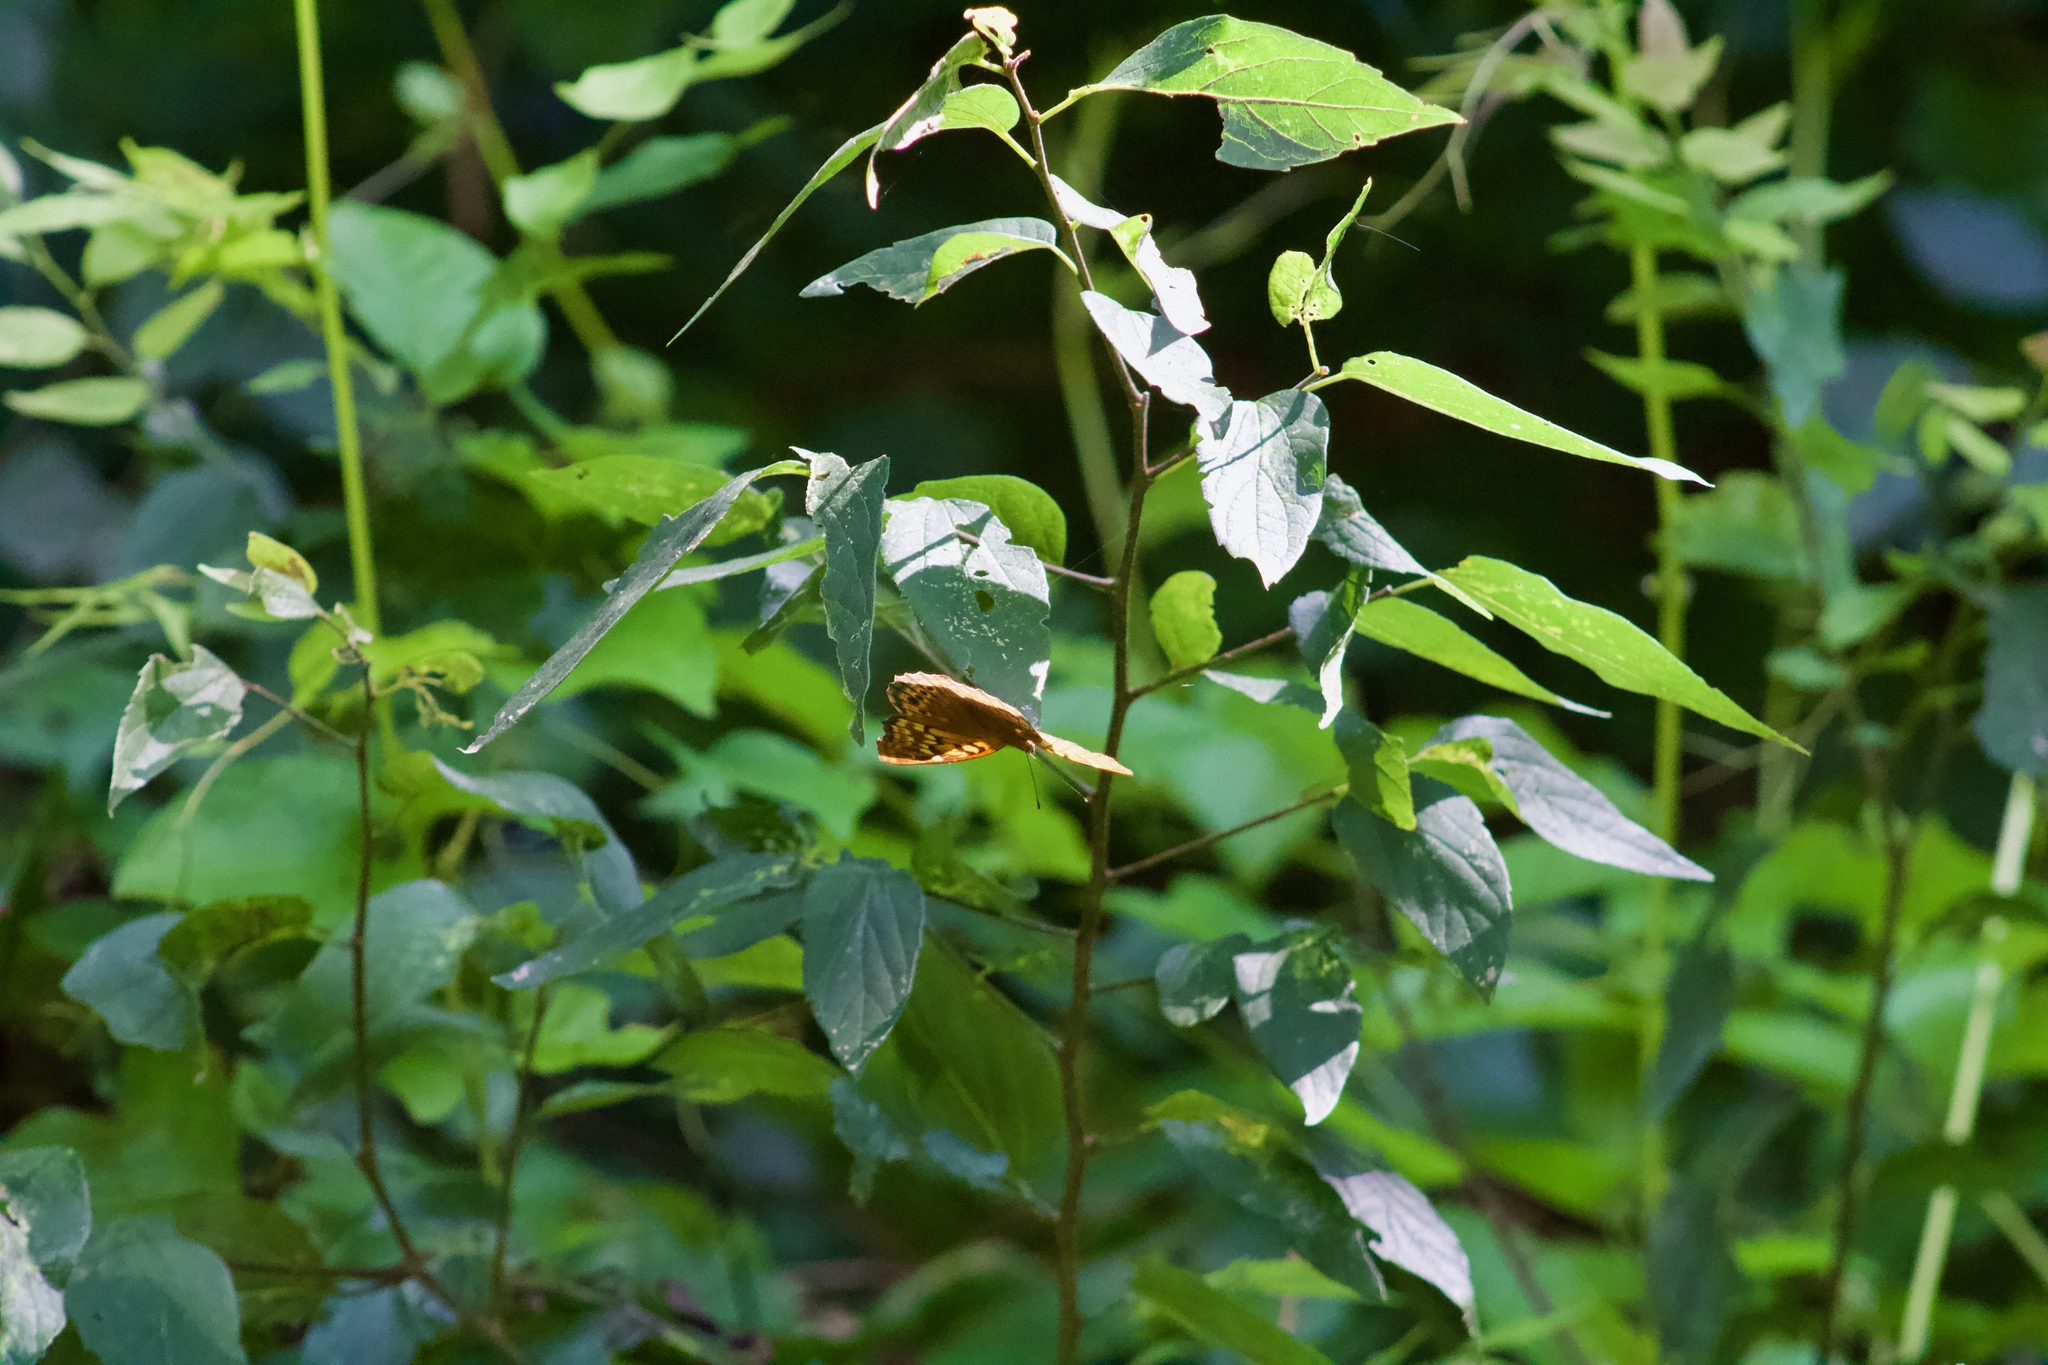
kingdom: Animalia
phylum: Arthropoda
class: Insecta
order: Lepidoptera
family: Nymphalidae
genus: Asterocampa
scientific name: Asterocampa celtis
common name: Hackberry emperor
